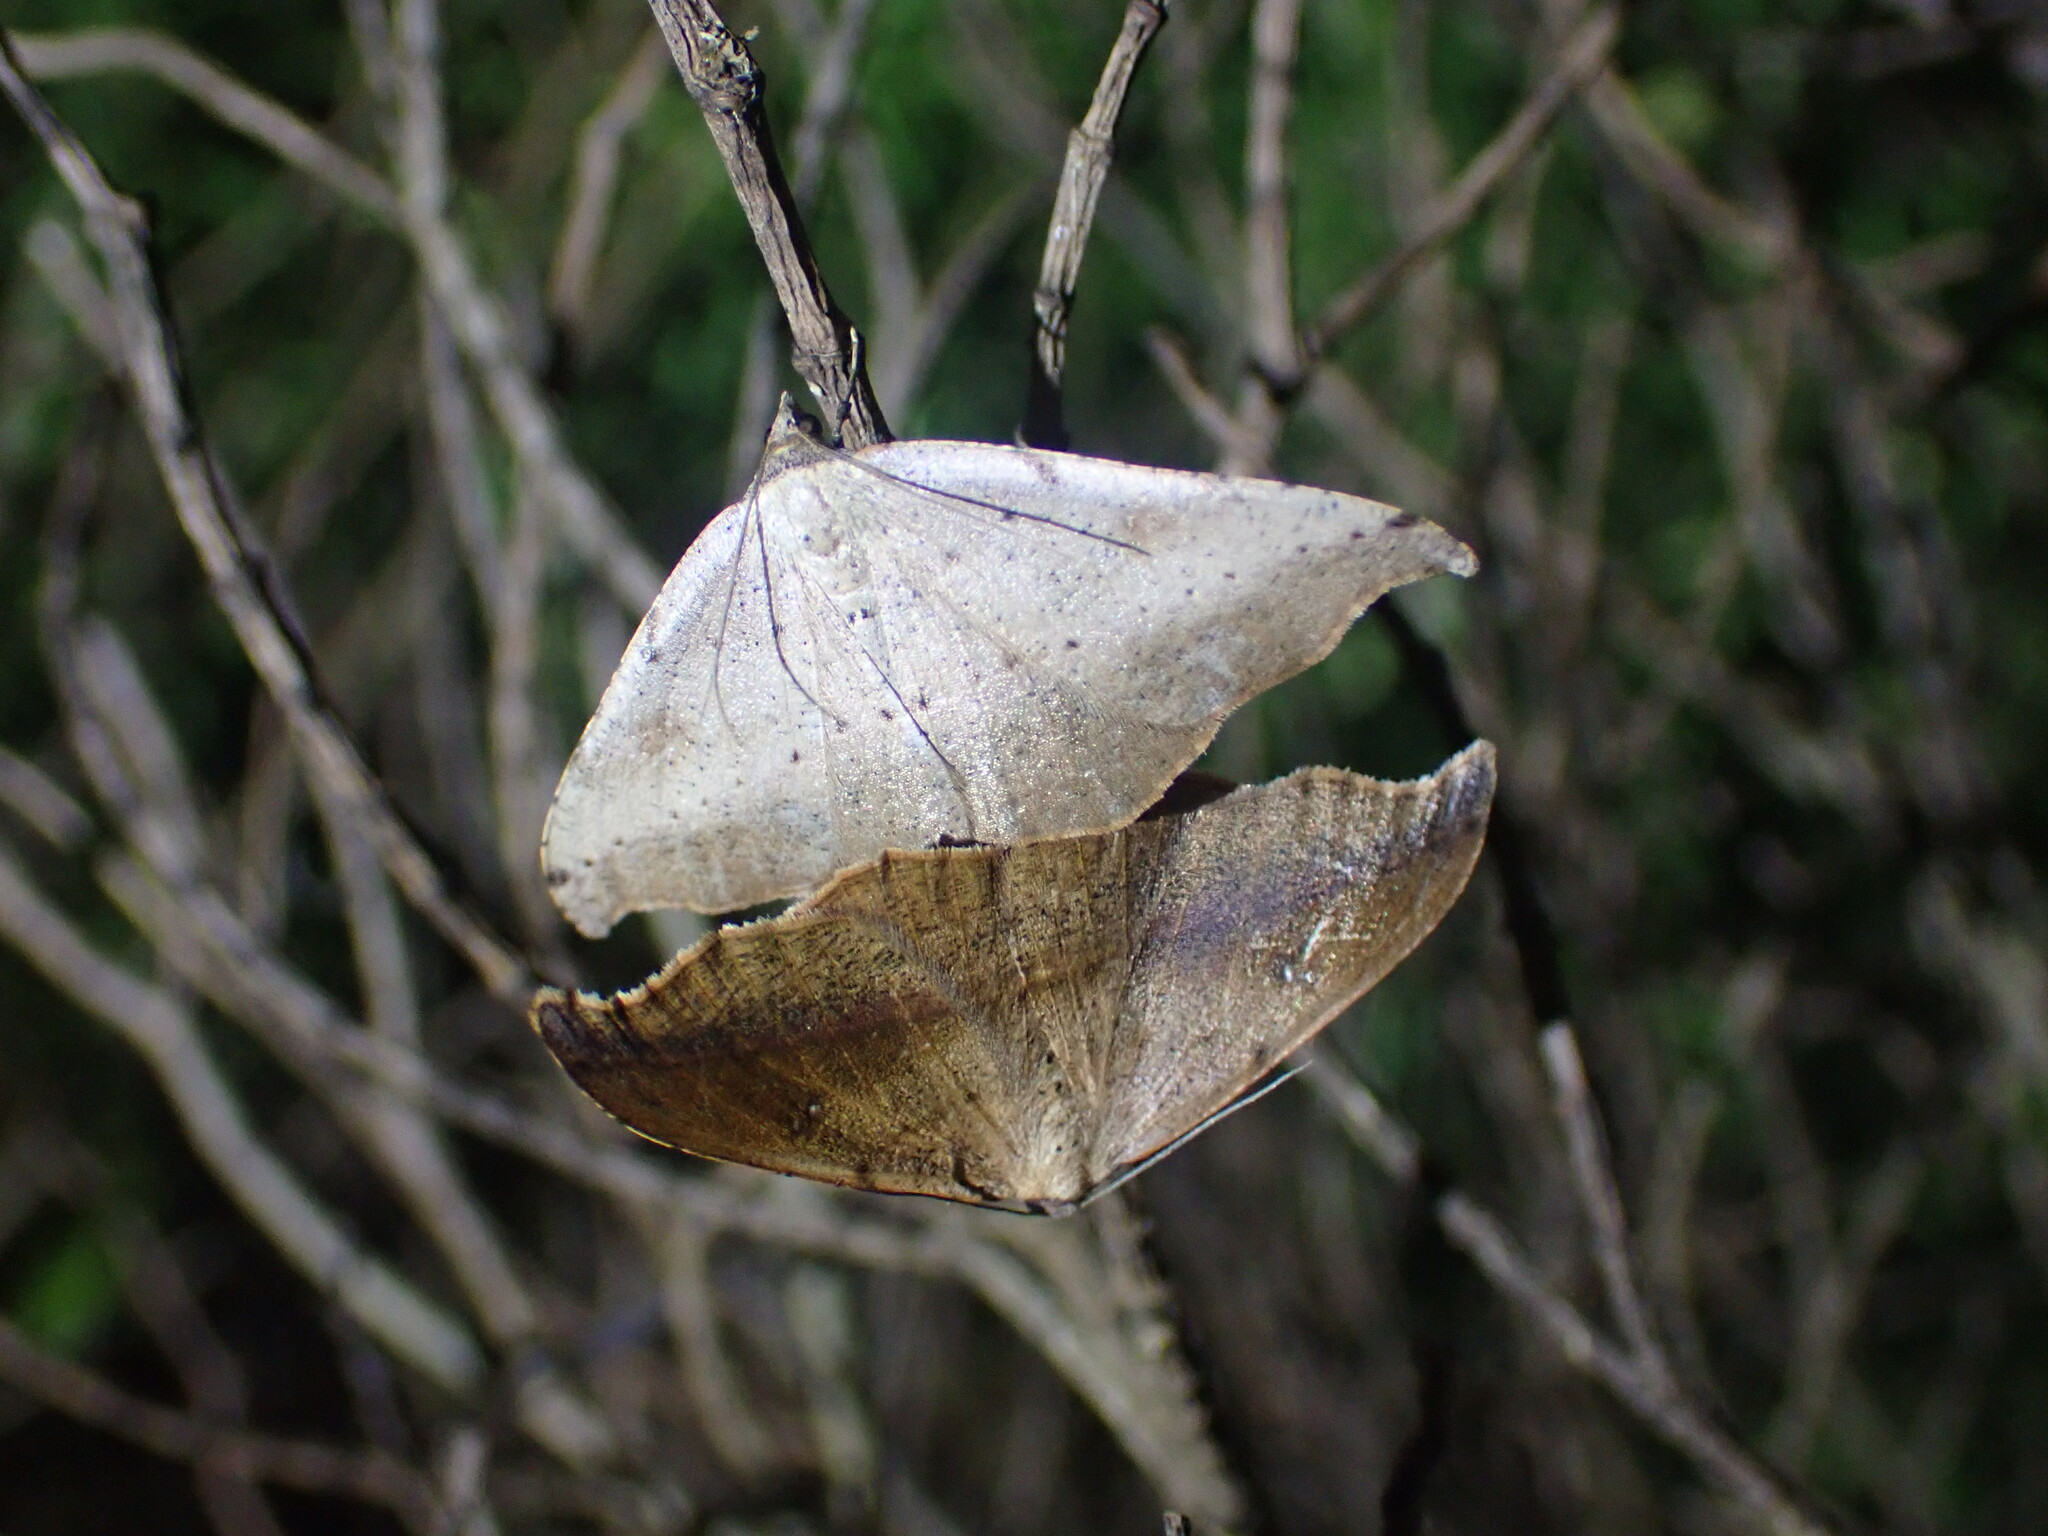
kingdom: Animalia
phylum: Arthropoda
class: Insecta
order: Lepidoptera
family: Geometridae
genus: Sarisa
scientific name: Sarisa muriferata
